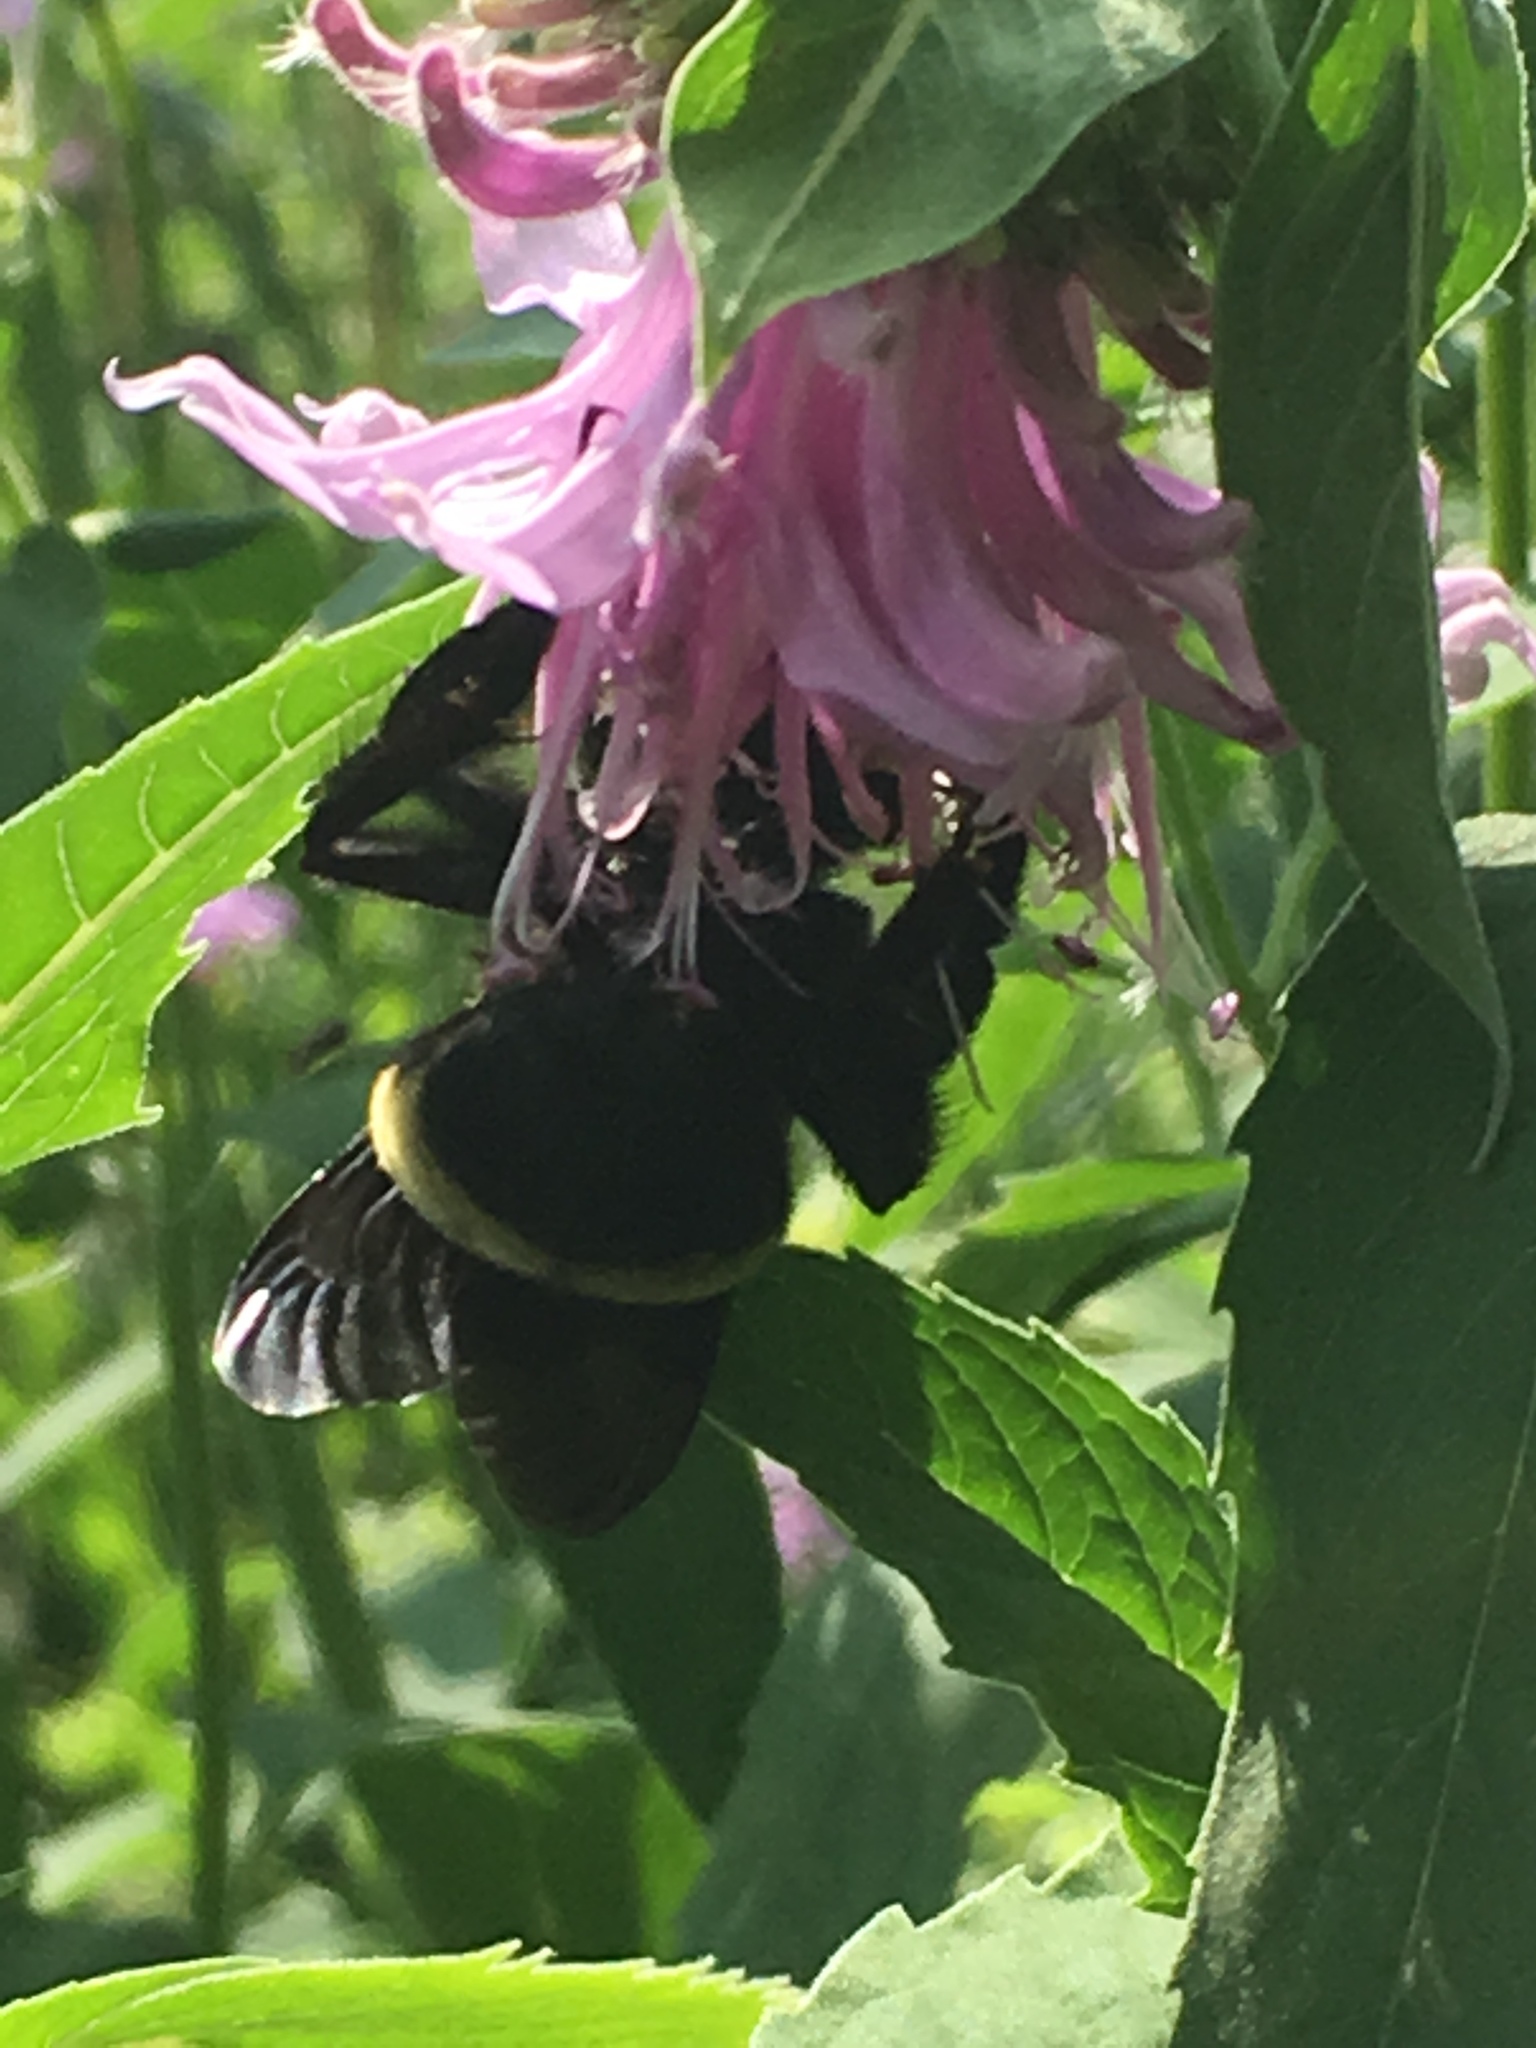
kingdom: Animalia
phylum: Arthropoda
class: Insecta
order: Hymenoptera
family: Apidae
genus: Bombus
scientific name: Bombus auricomus
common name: Black and gold bumble bee
